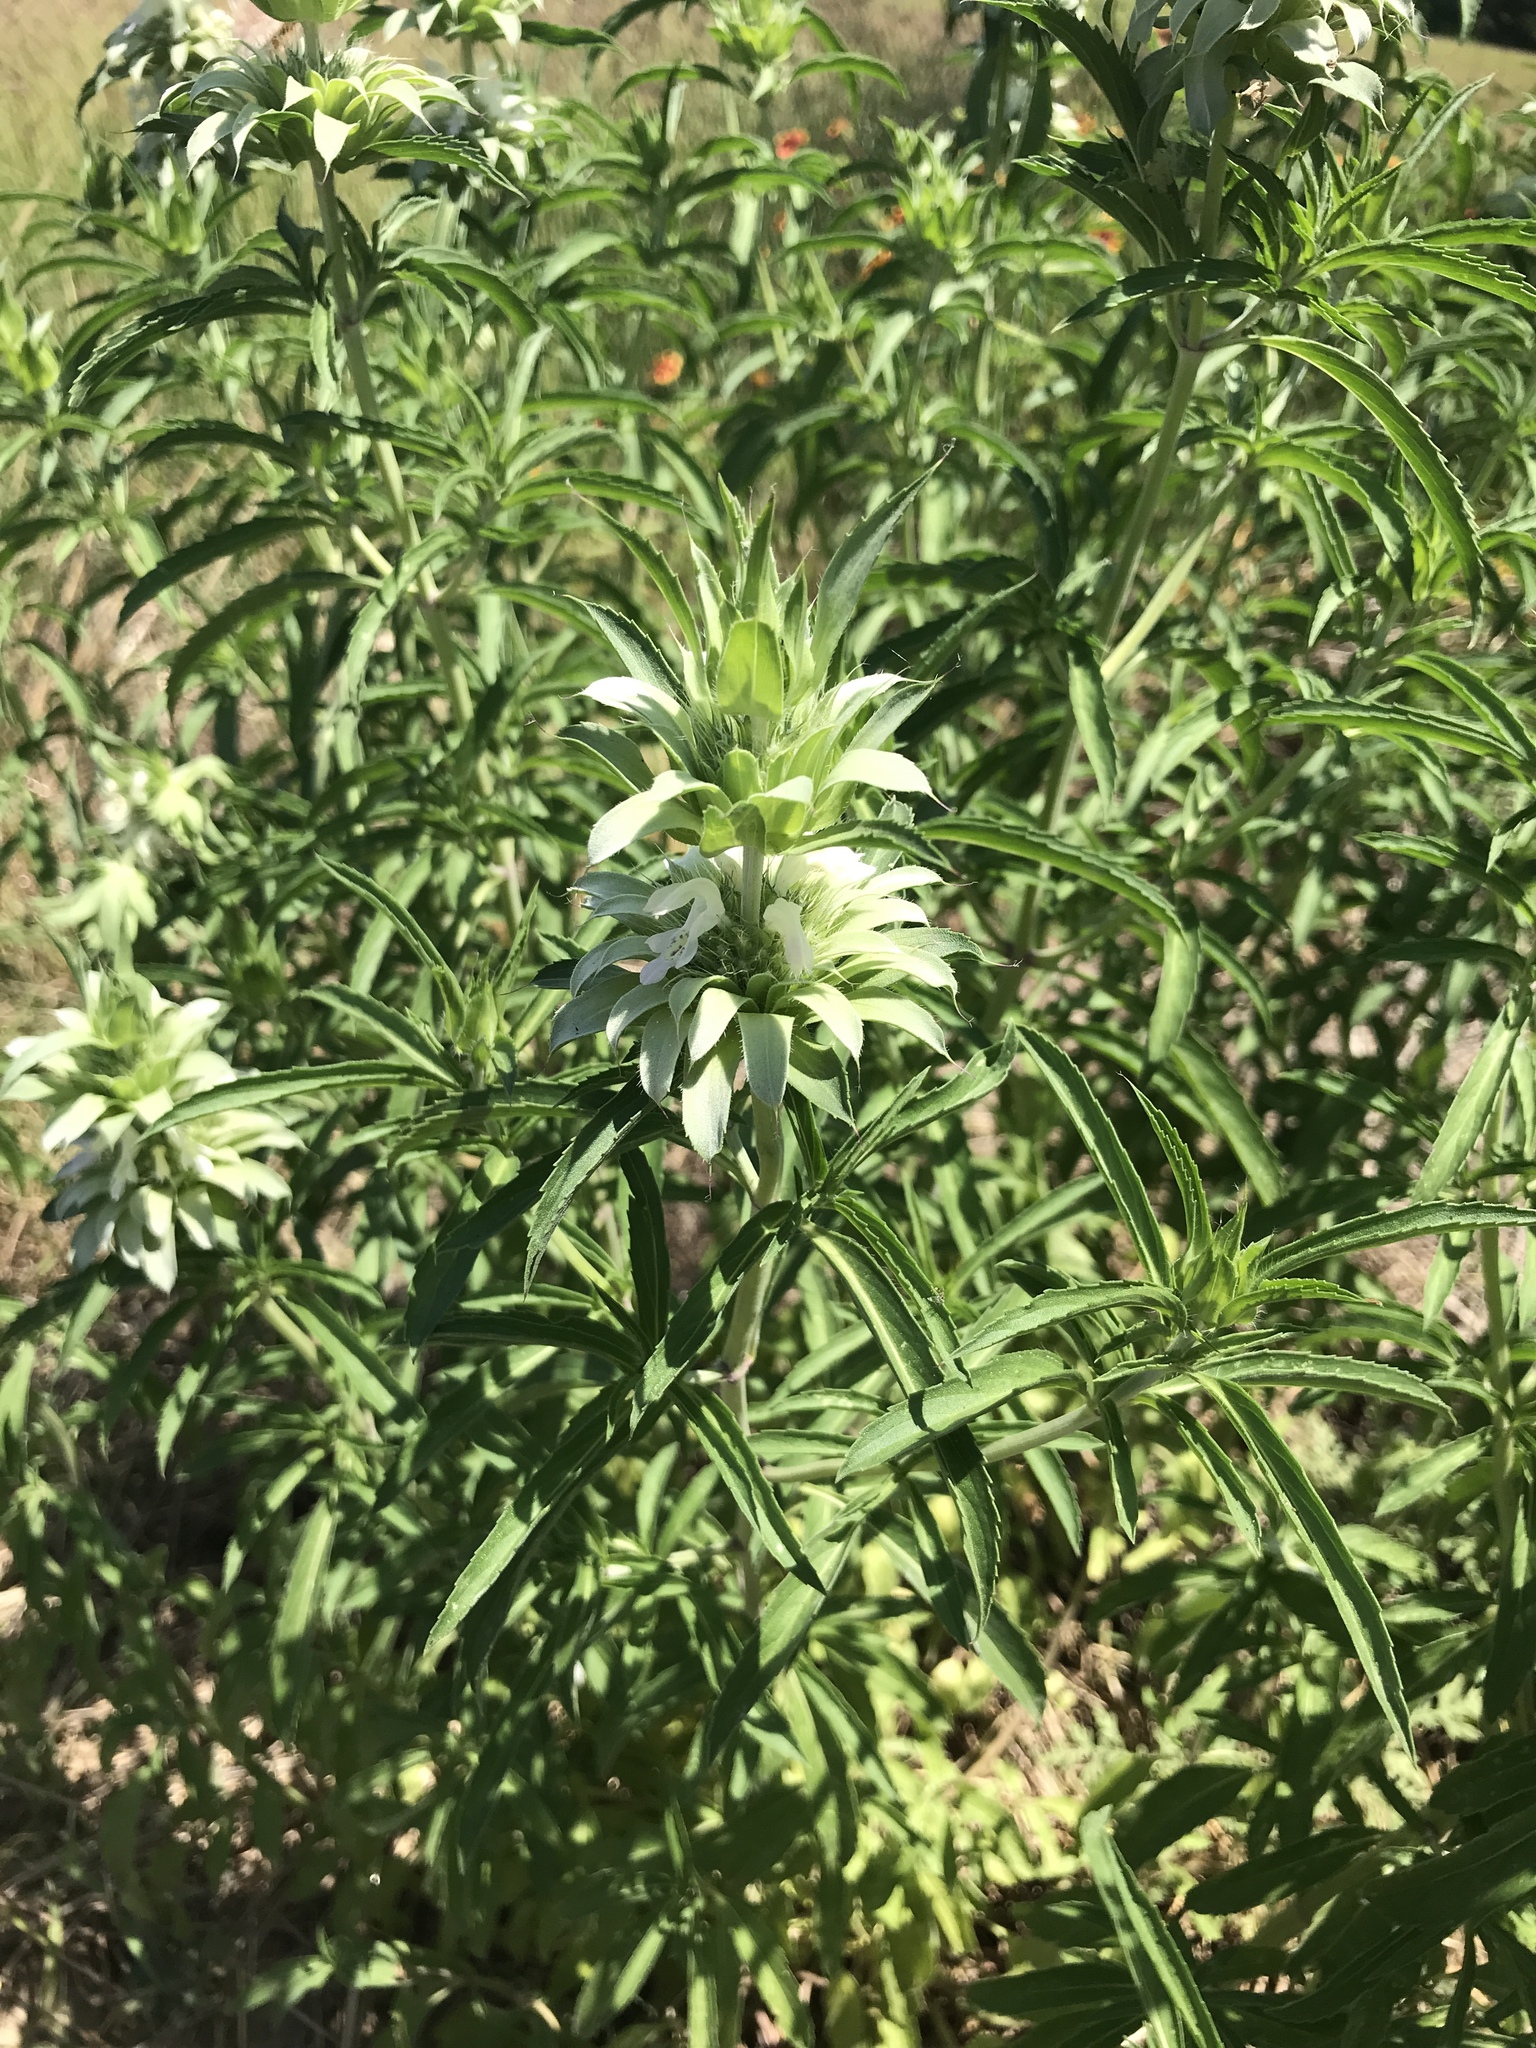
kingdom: Plantae
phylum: Tracheophyta
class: Magnoliopsida
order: Lamiales
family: Lamiaceae
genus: Monarda
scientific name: Monarda citriodora
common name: Lemon beebalm
